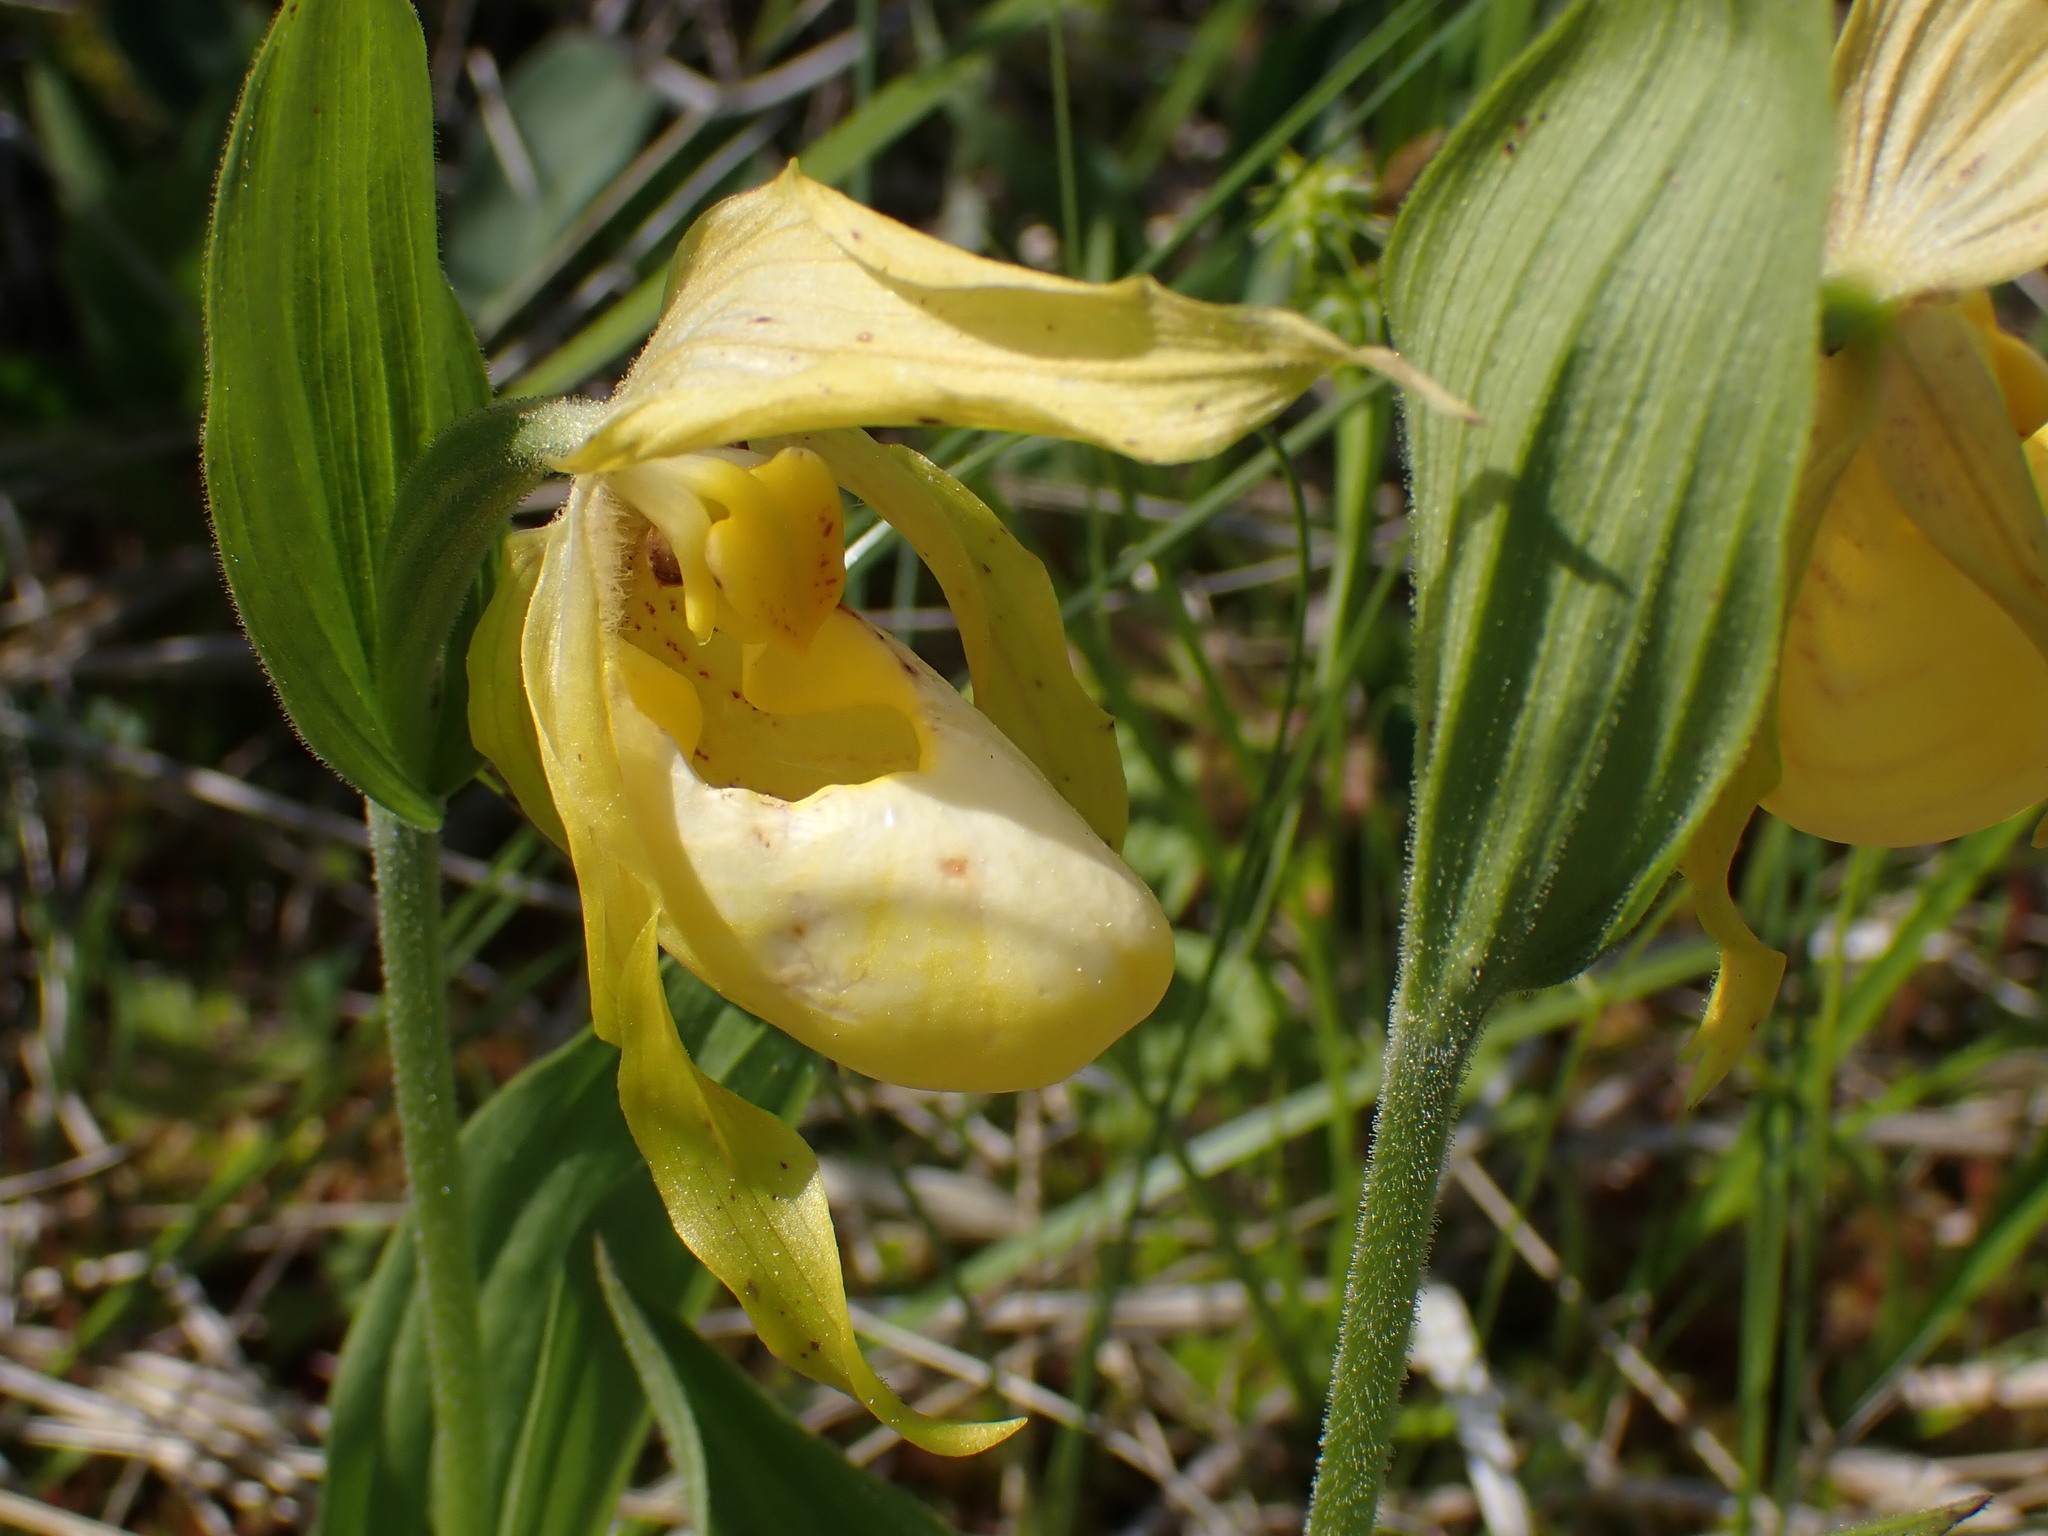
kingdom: Plantae
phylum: Tracheophyta
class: Liliopsida
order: Asparagales
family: Orchidaceae
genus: Cypripedium
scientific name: Cypripedium parviflorum
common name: American yellow lady's-slipper
